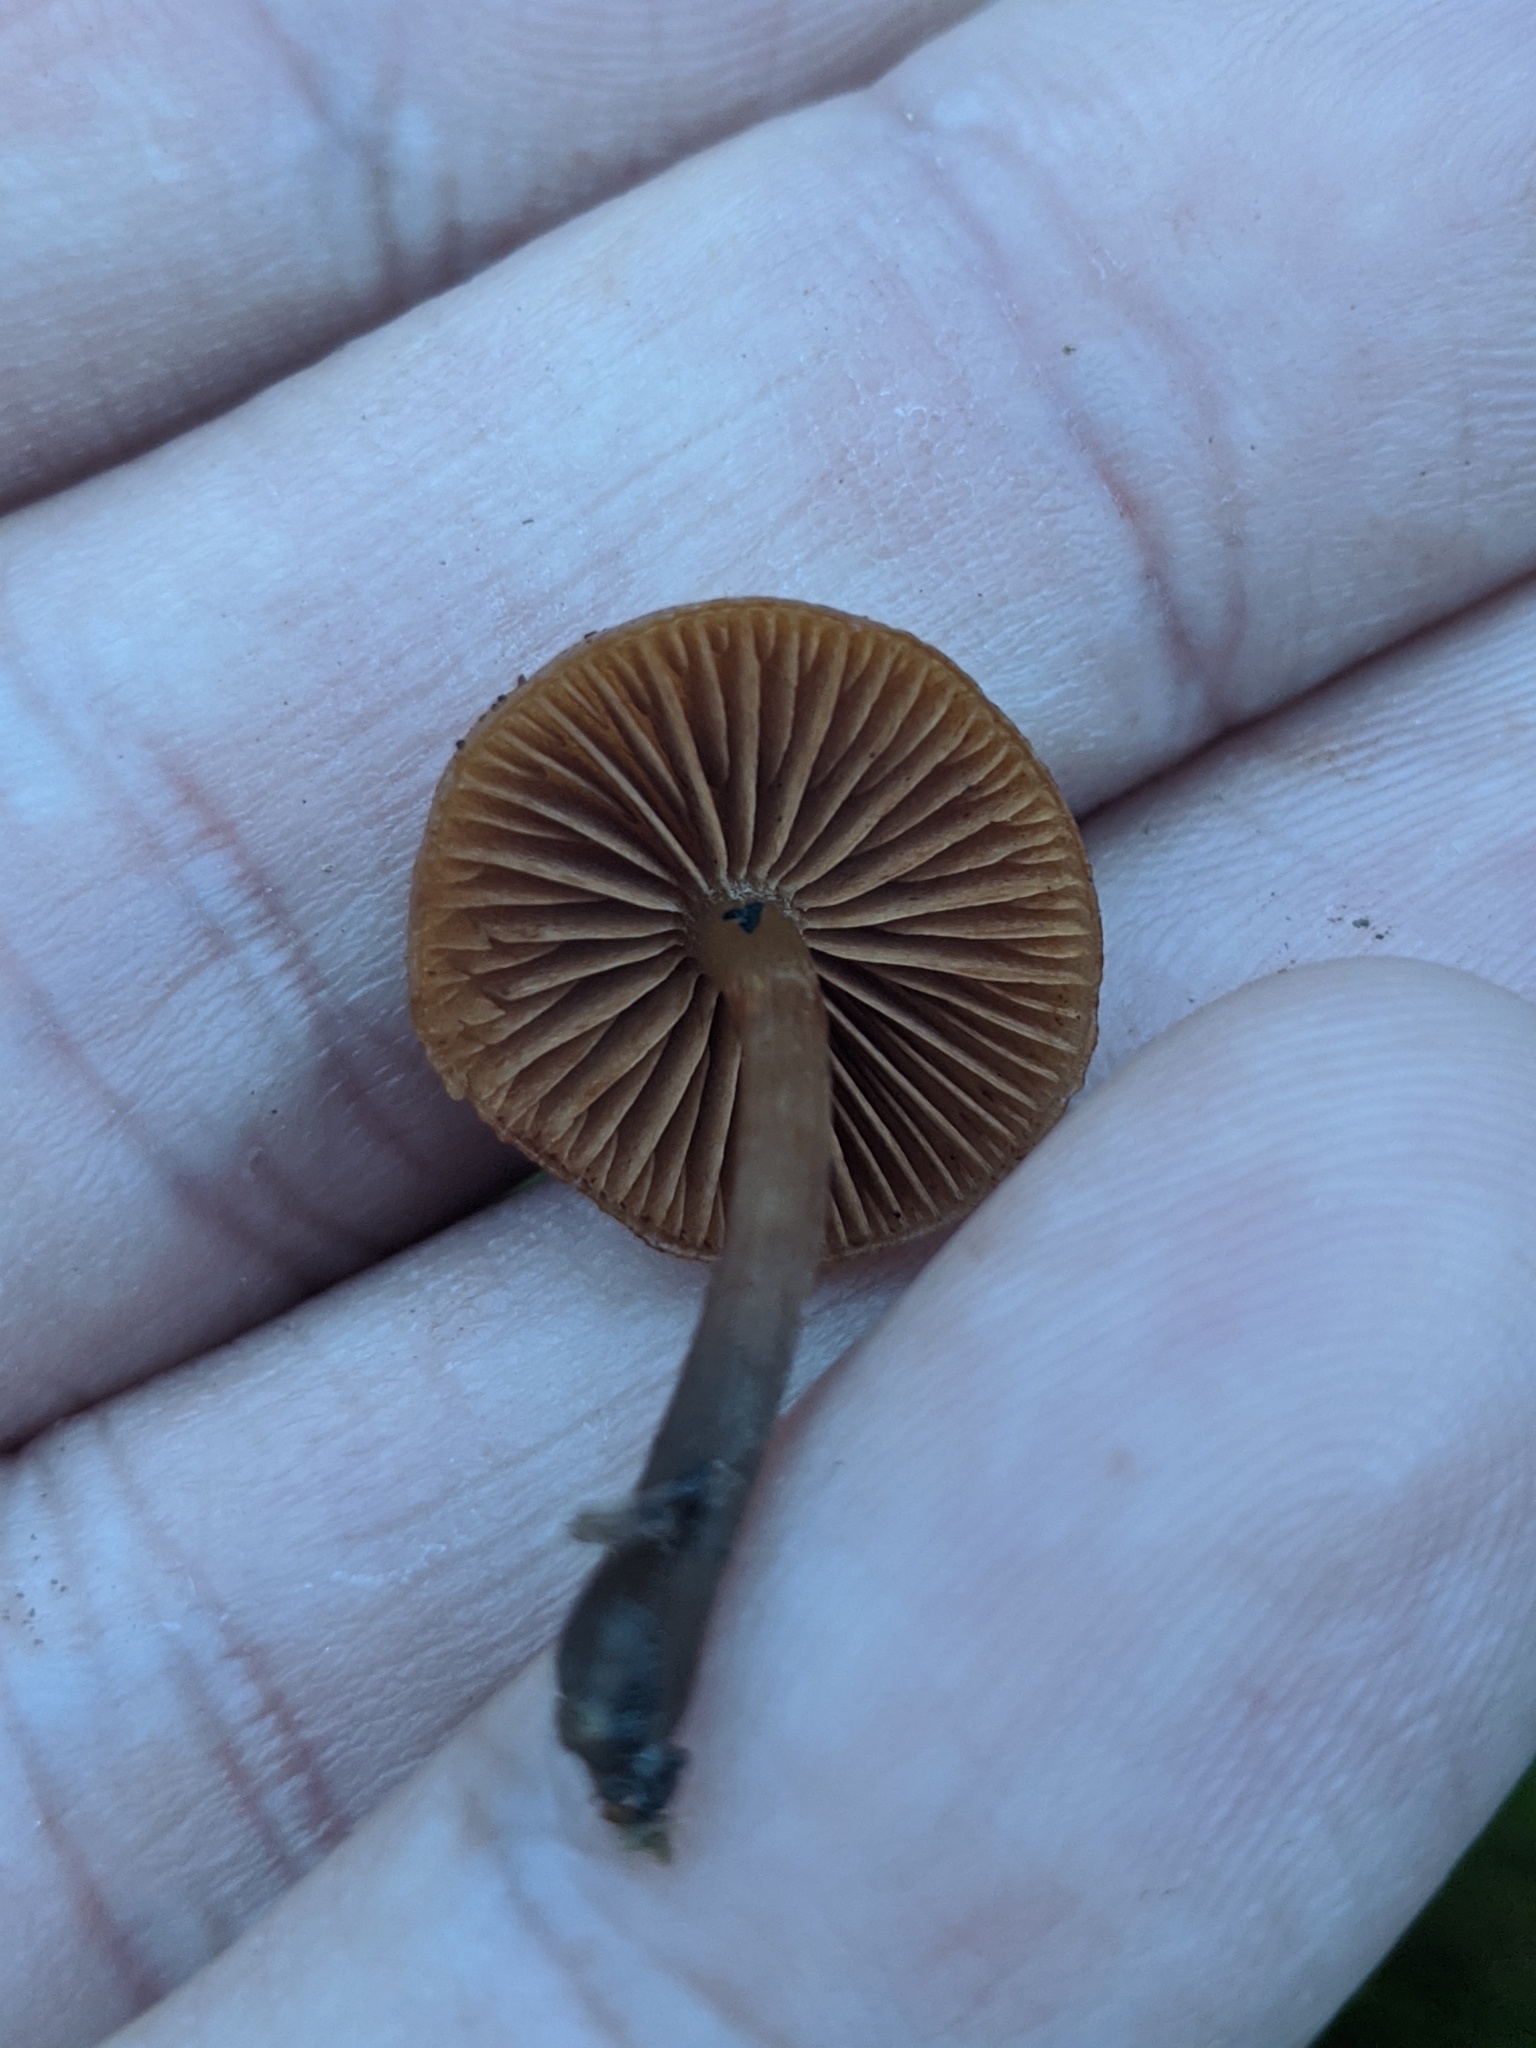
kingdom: Fungi
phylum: Basidiomycota
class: Agaricomycetes
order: Agaricales
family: Hymenogastraceae
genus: Galerina
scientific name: Galerina marginata
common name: Funeral bell
